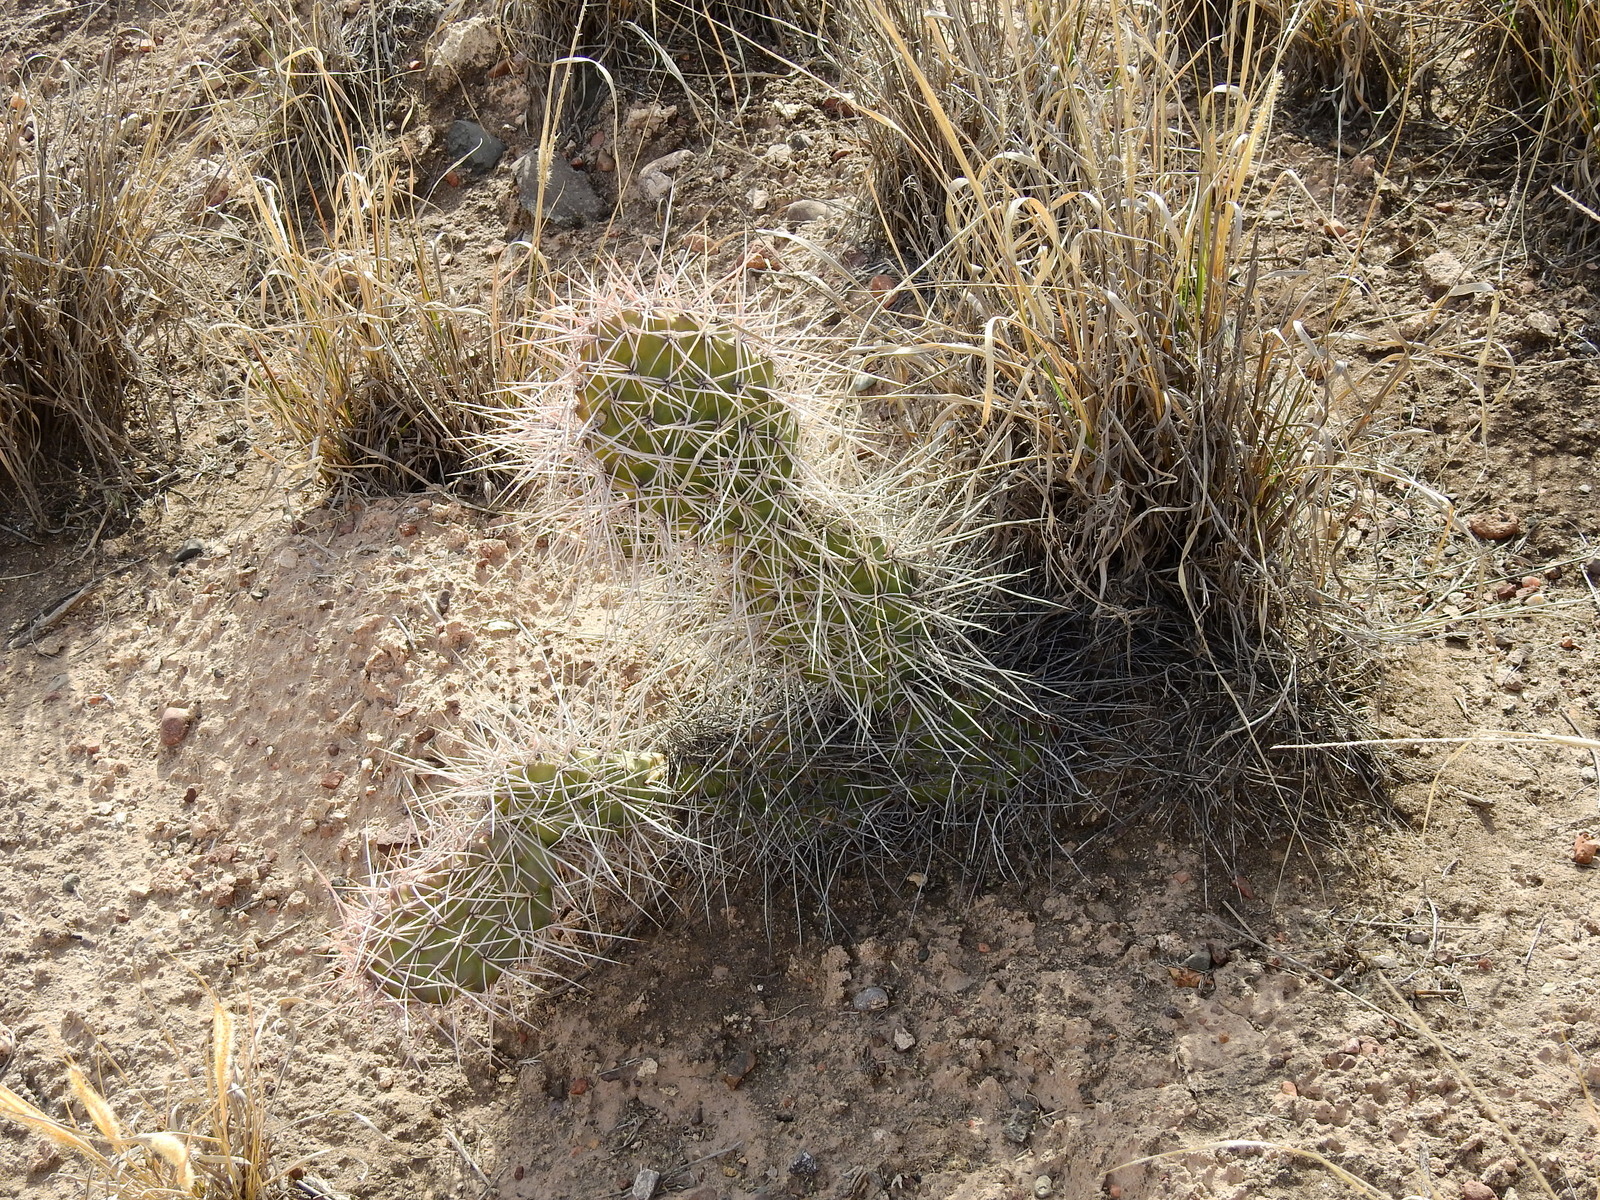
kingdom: Plantae
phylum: Tracheophyta
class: Magnoliopsida
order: Caryophyllales
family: Cactaceae
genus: Opuntia
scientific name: Opuntia sulphurea
